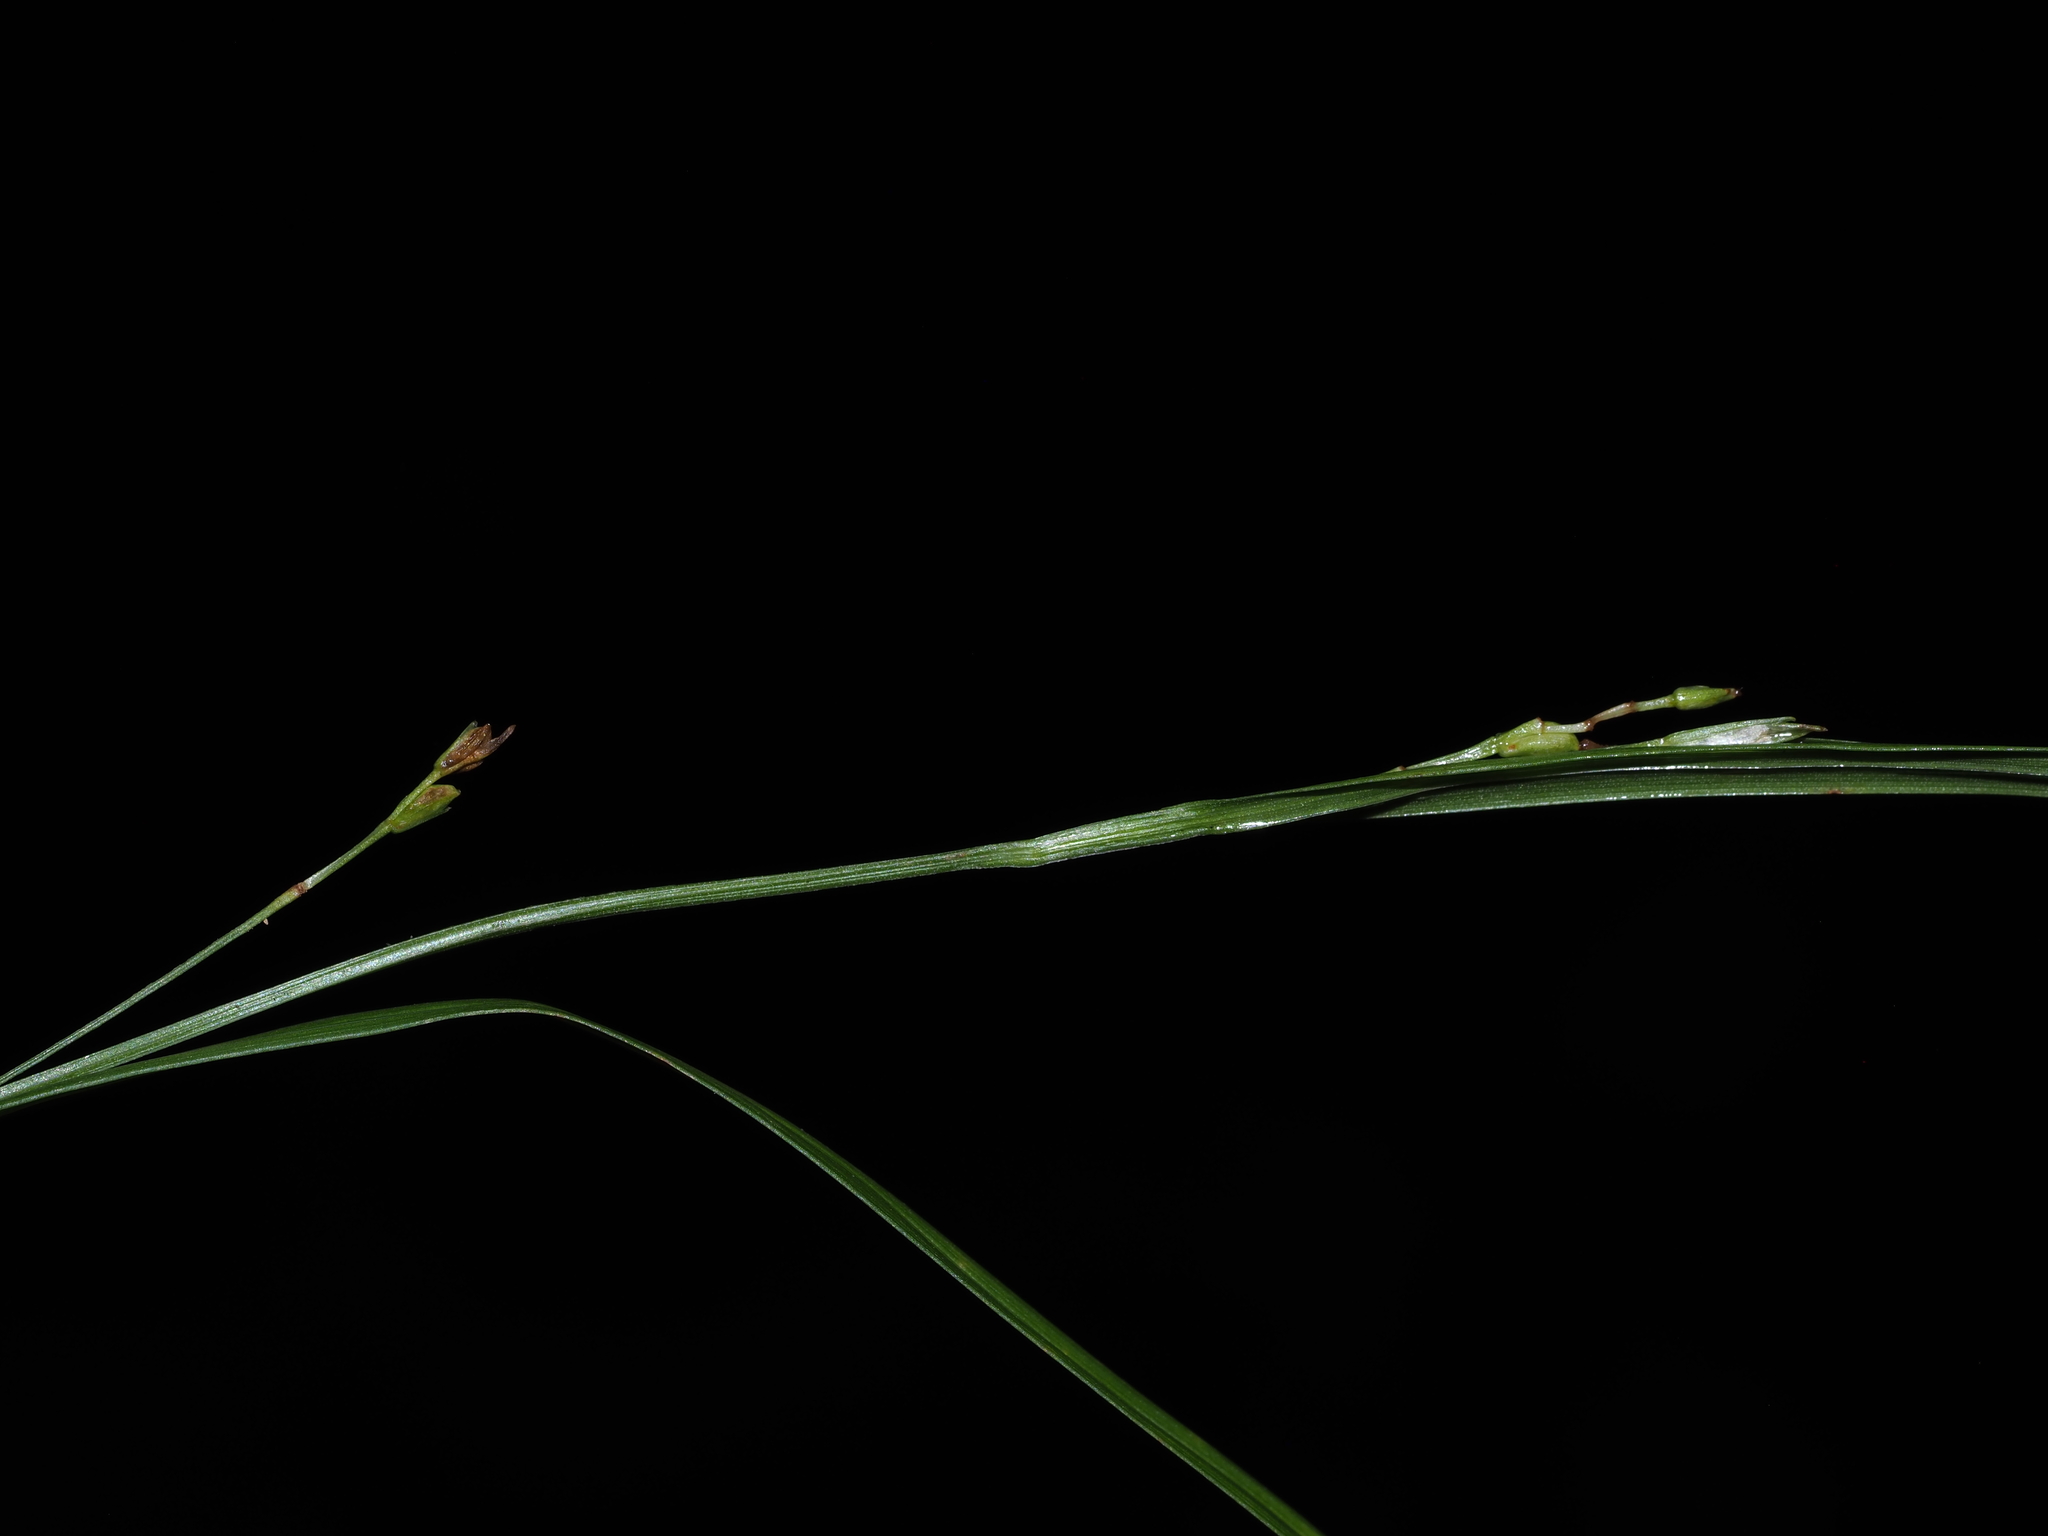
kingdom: Plantae
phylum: Tracheophyta
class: Liliopsida
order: Poales
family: Cyperaceae
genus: Carex
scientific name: Carex digitalis
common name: Slender wood sedge
